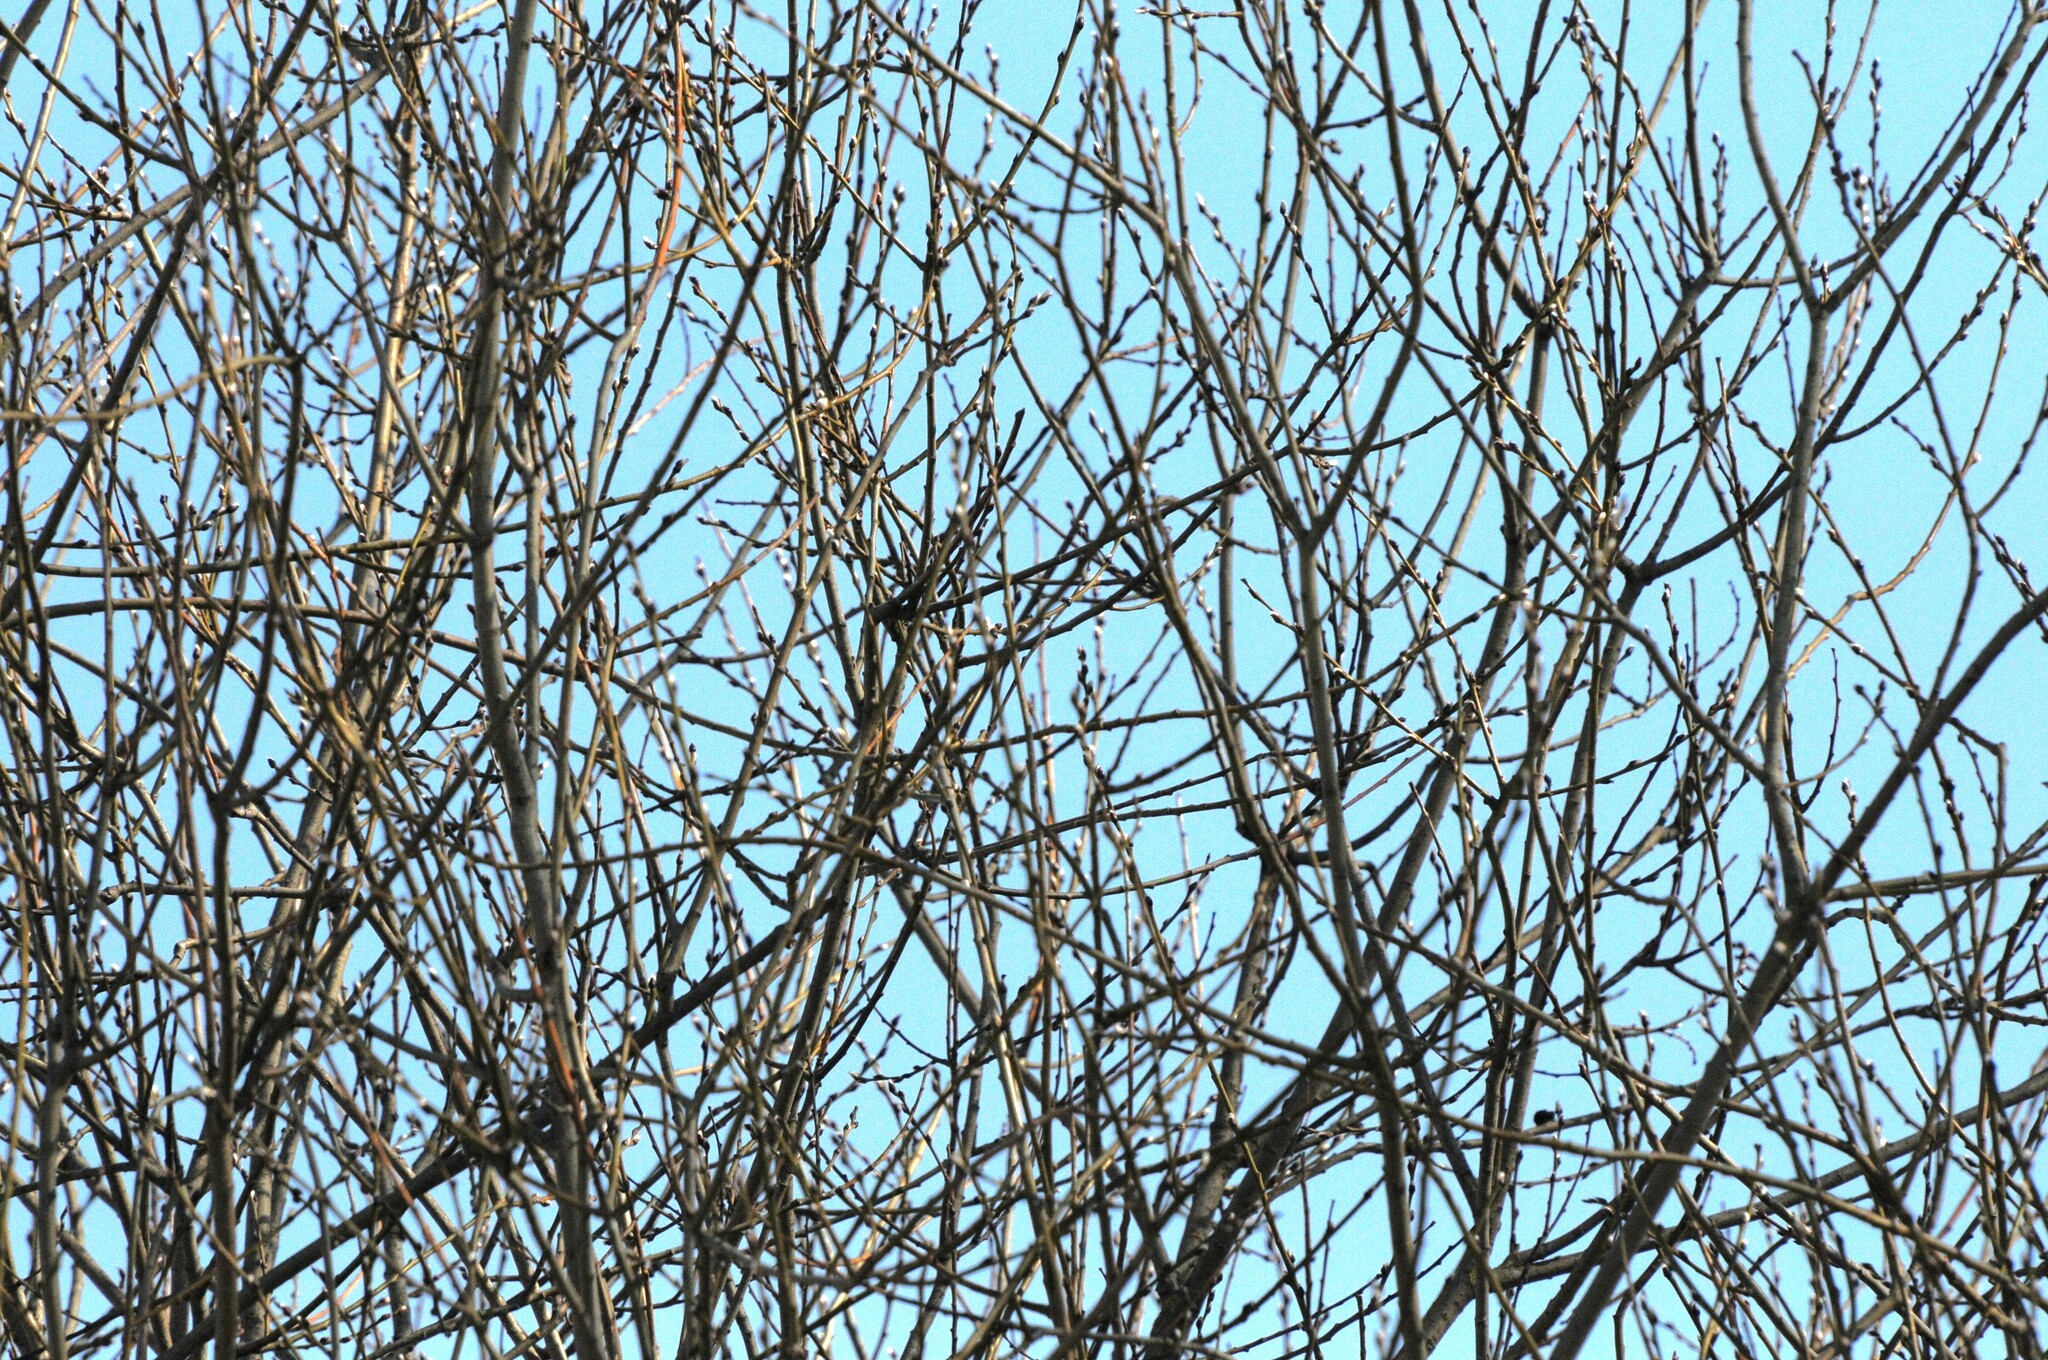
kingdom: Plantae
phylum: Tracheophyta
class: Magnoliopsida
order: Malpighiales
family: Salicaceae
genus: Salix
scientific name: Salix caprea
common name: Goat willow
